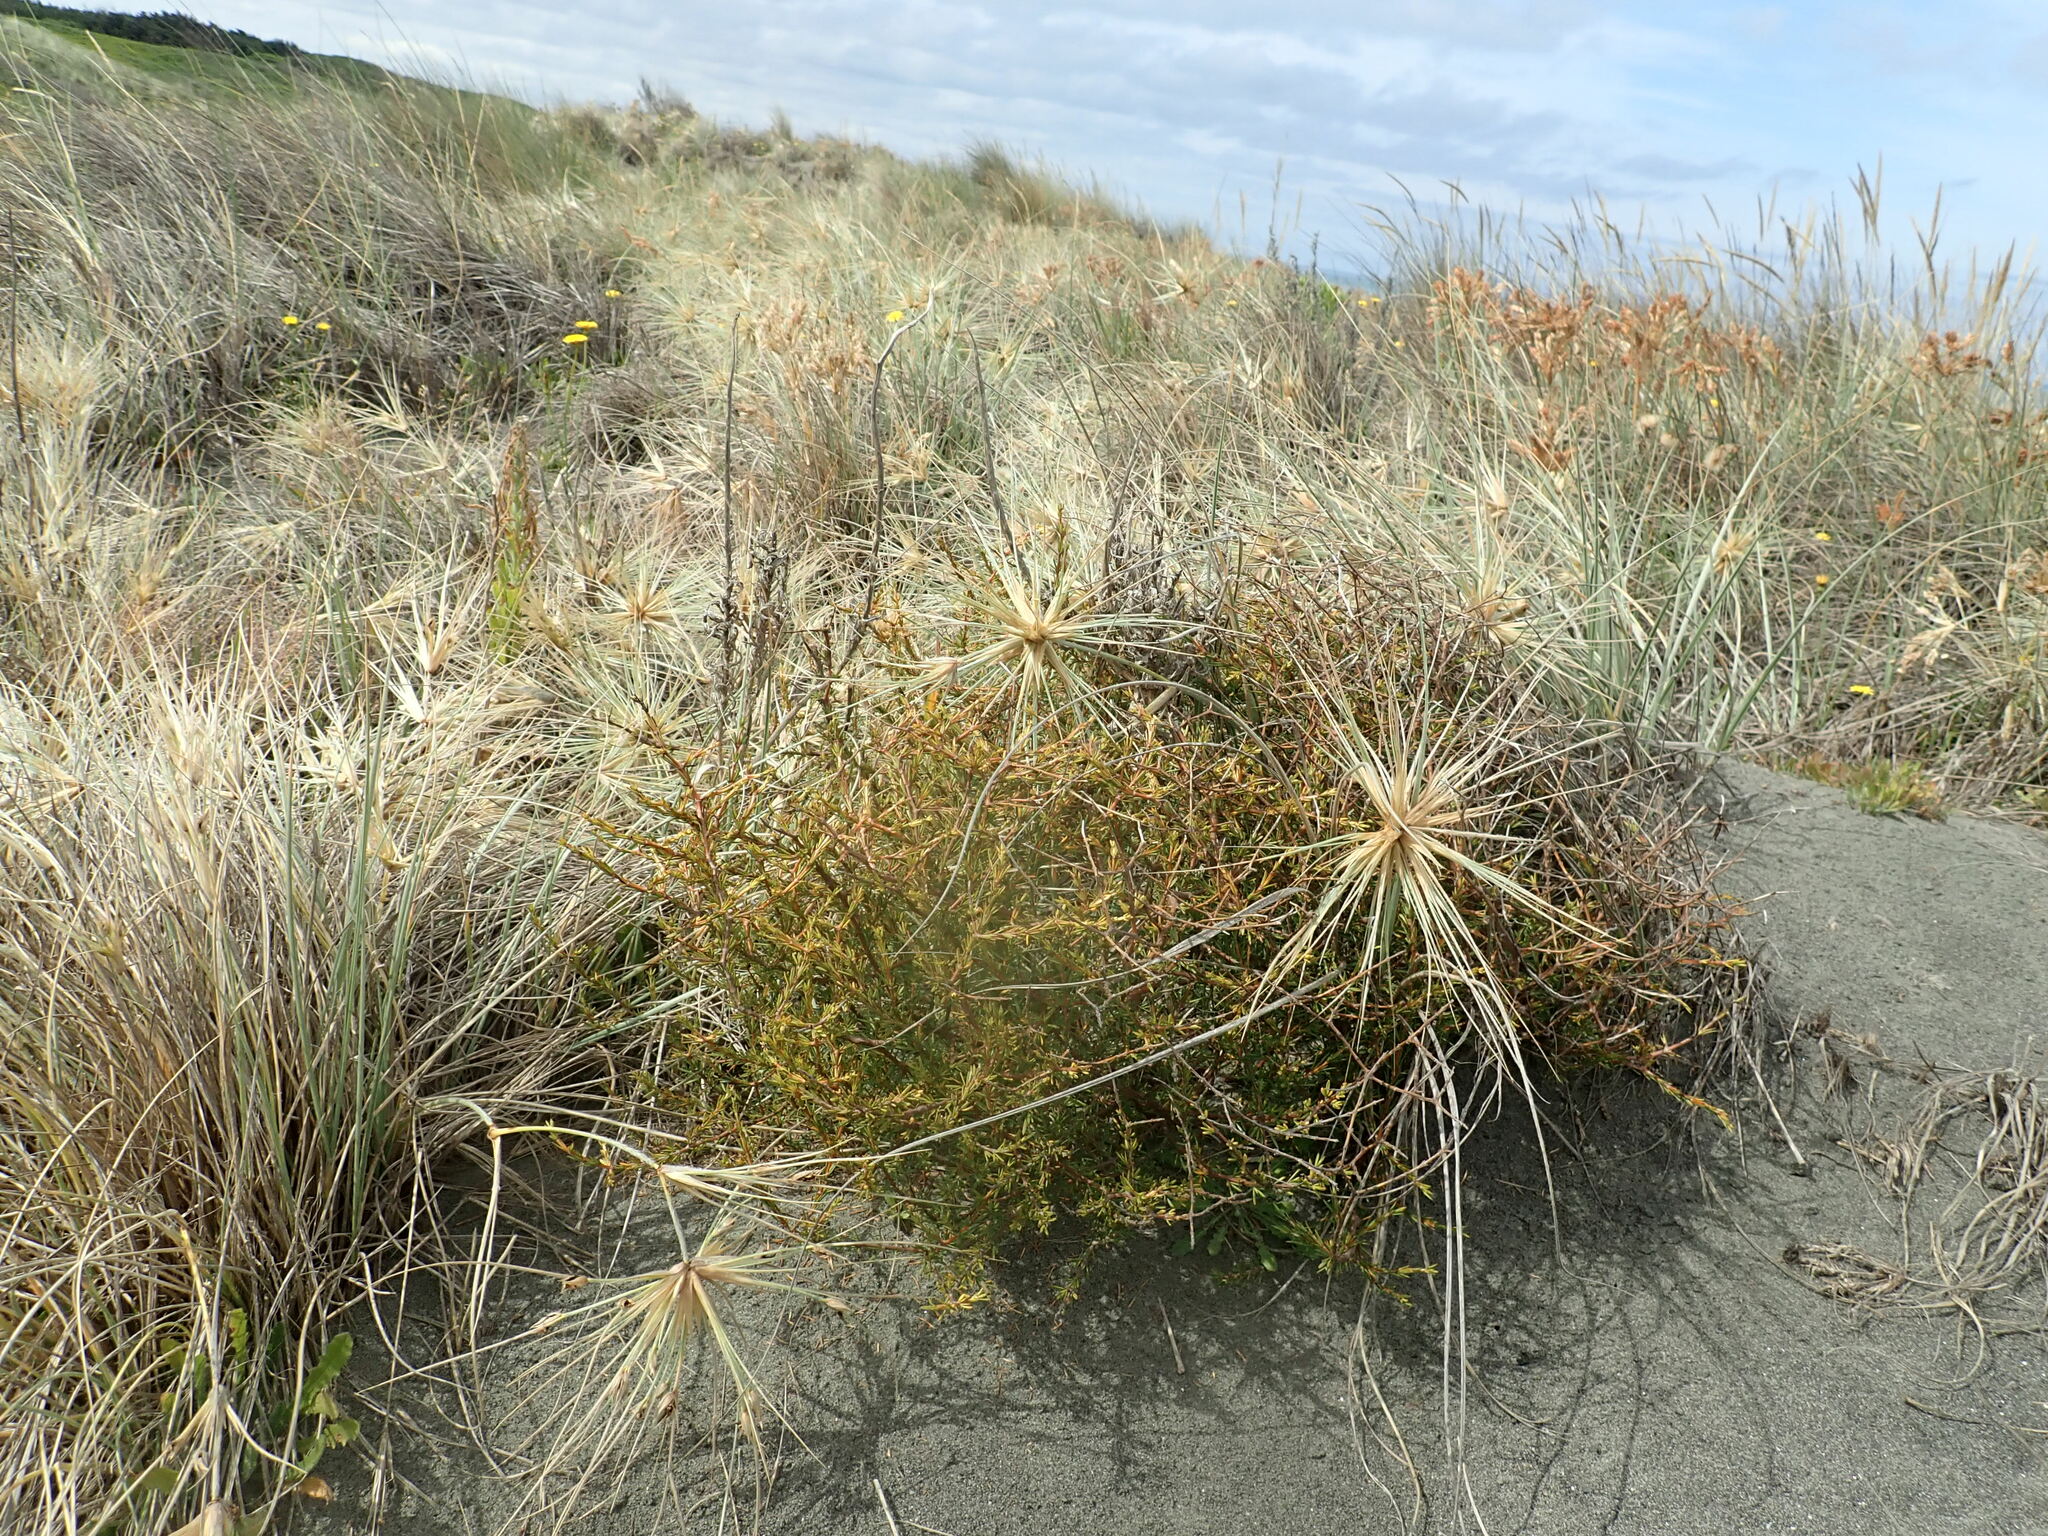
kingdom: Plantae
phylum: Tracheophyta
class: Magnoliopsida
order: Gentianales
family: Rubiaceae
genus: Coprosma
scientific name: Coprosma acerosa
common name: Sand coprosma
